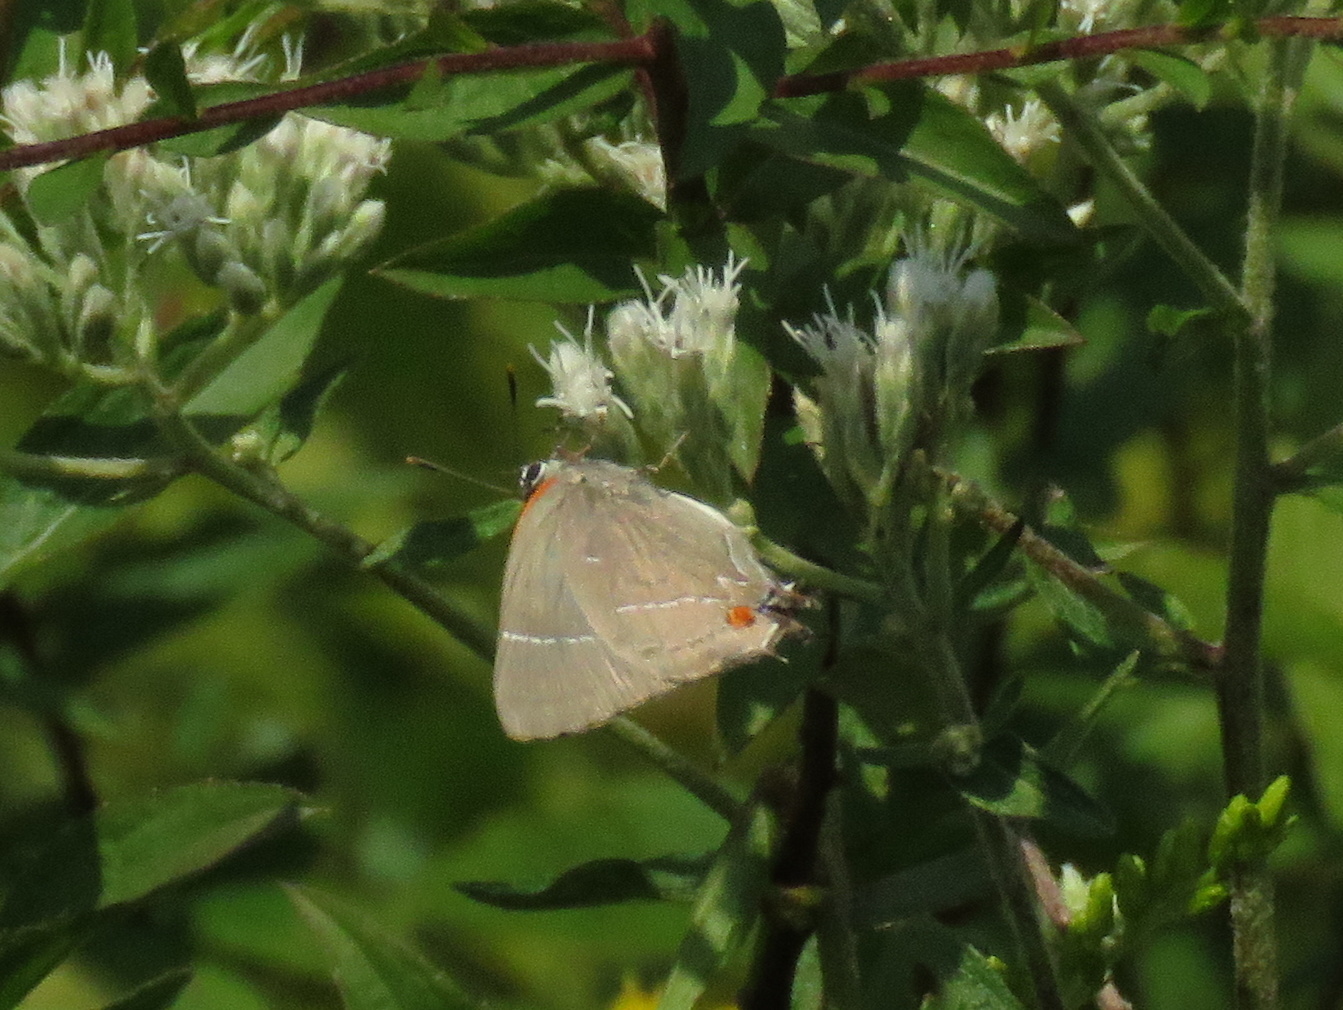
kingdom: Animalia
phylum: Arthropoda
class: Insecta
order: Lepidoptera
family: Lycaenidae
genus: Parrhasius
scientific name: Parrhasius m-album
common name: White m hairstreak
